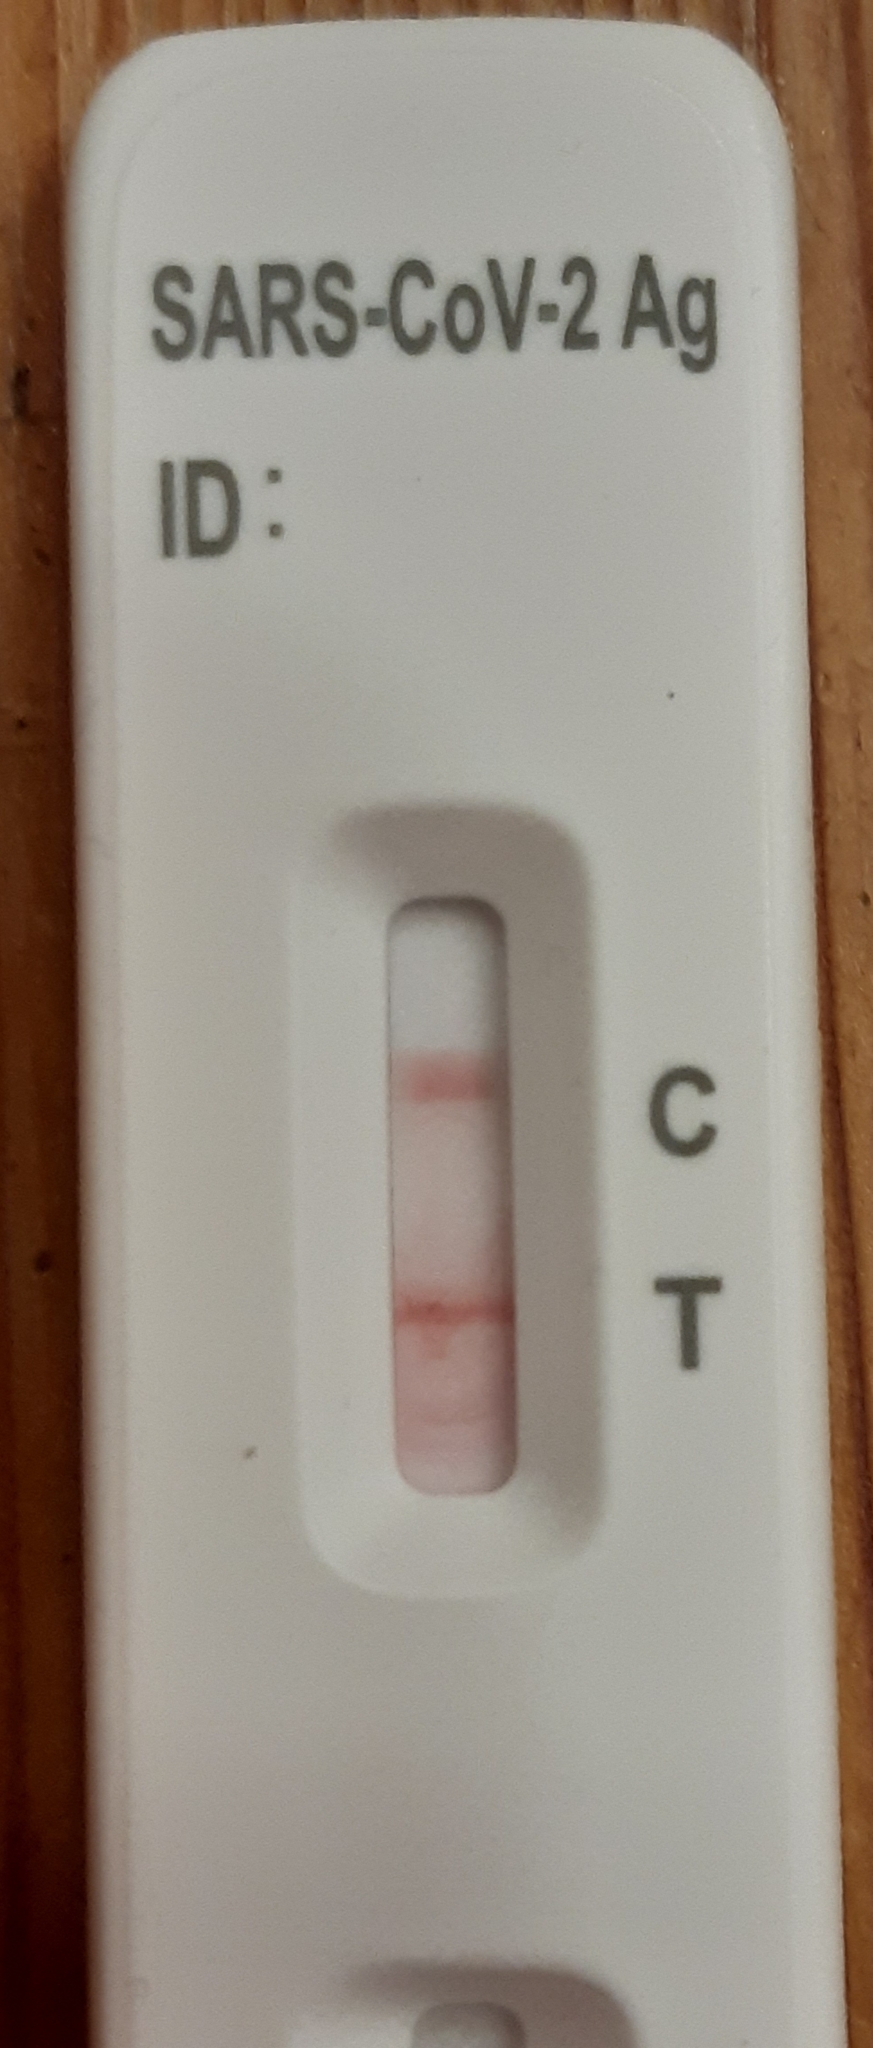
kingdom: Viruses
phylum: Pisuviricota
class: Pisoniviricetes
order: Nidovirales
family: Coronaviridae
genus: Betacoronavirus
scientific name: Betacoronavirus
